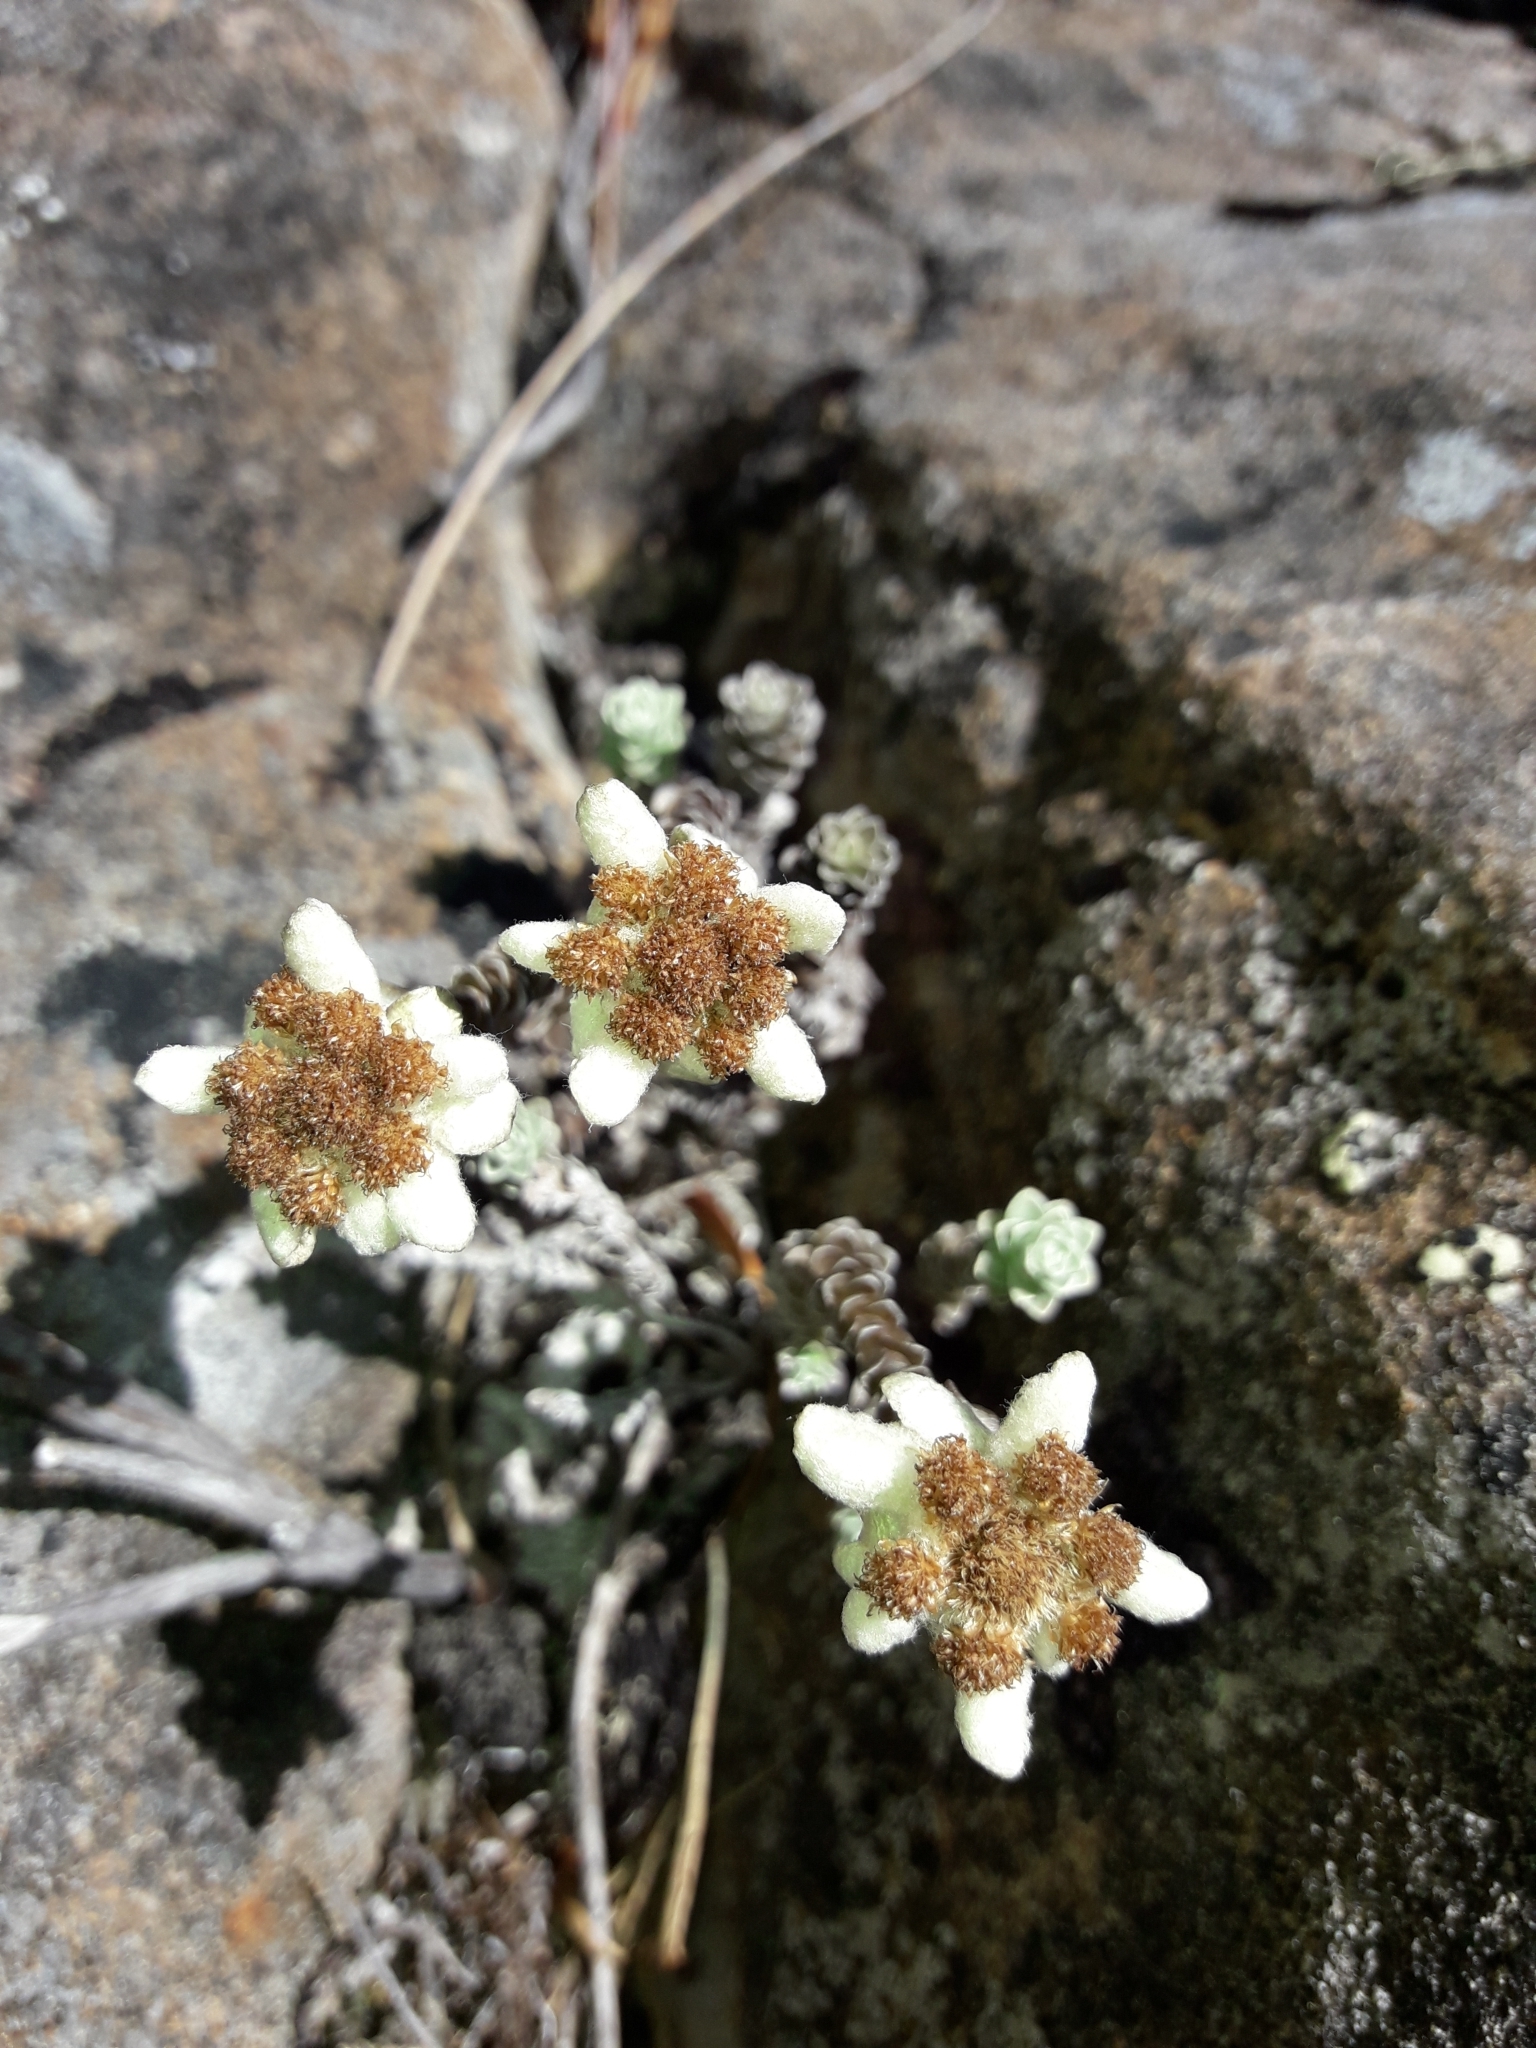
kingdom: Plantae
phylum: Tracheophyta
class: Magnoliopsida
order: Asterales
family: Asteraceae
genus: Leucogenes
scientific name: Leucogenes grandiceps
